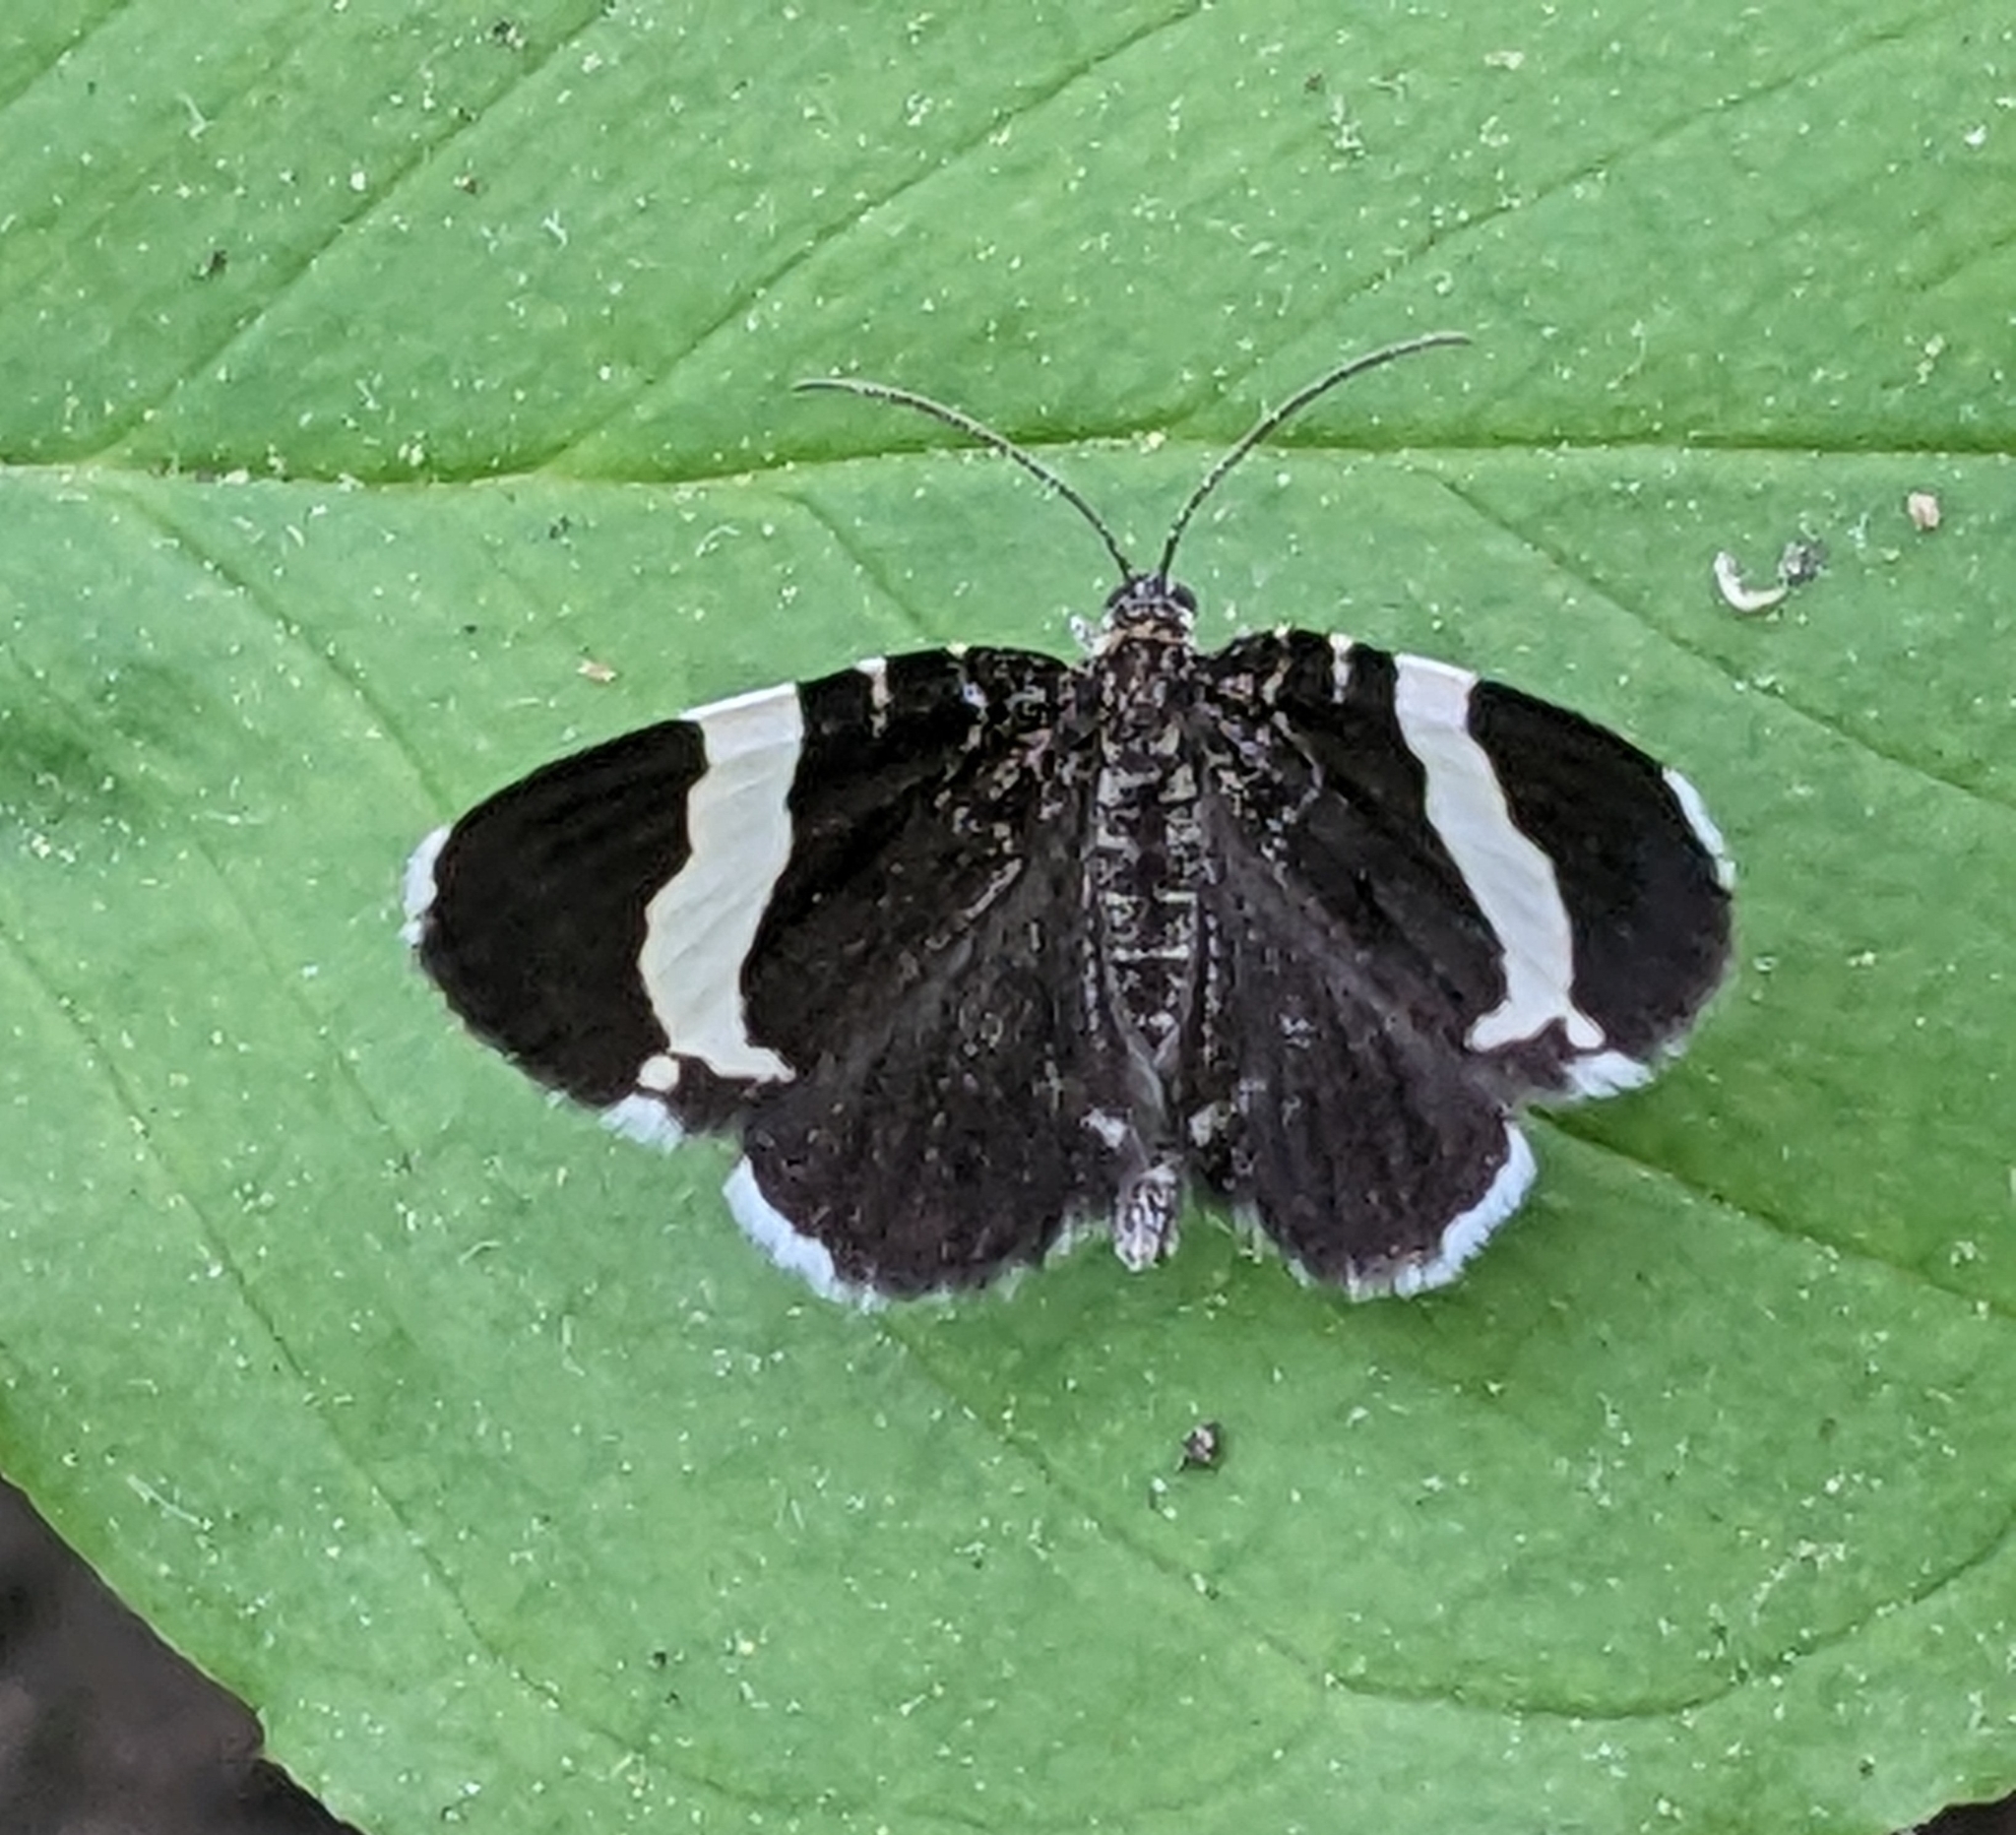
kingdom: Animalia
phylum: Arthropoda
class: Insecta
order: Lepidoptera
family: Geometridae
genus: Trichodezia
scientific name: Trichodezia albovittata
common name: White striped black
